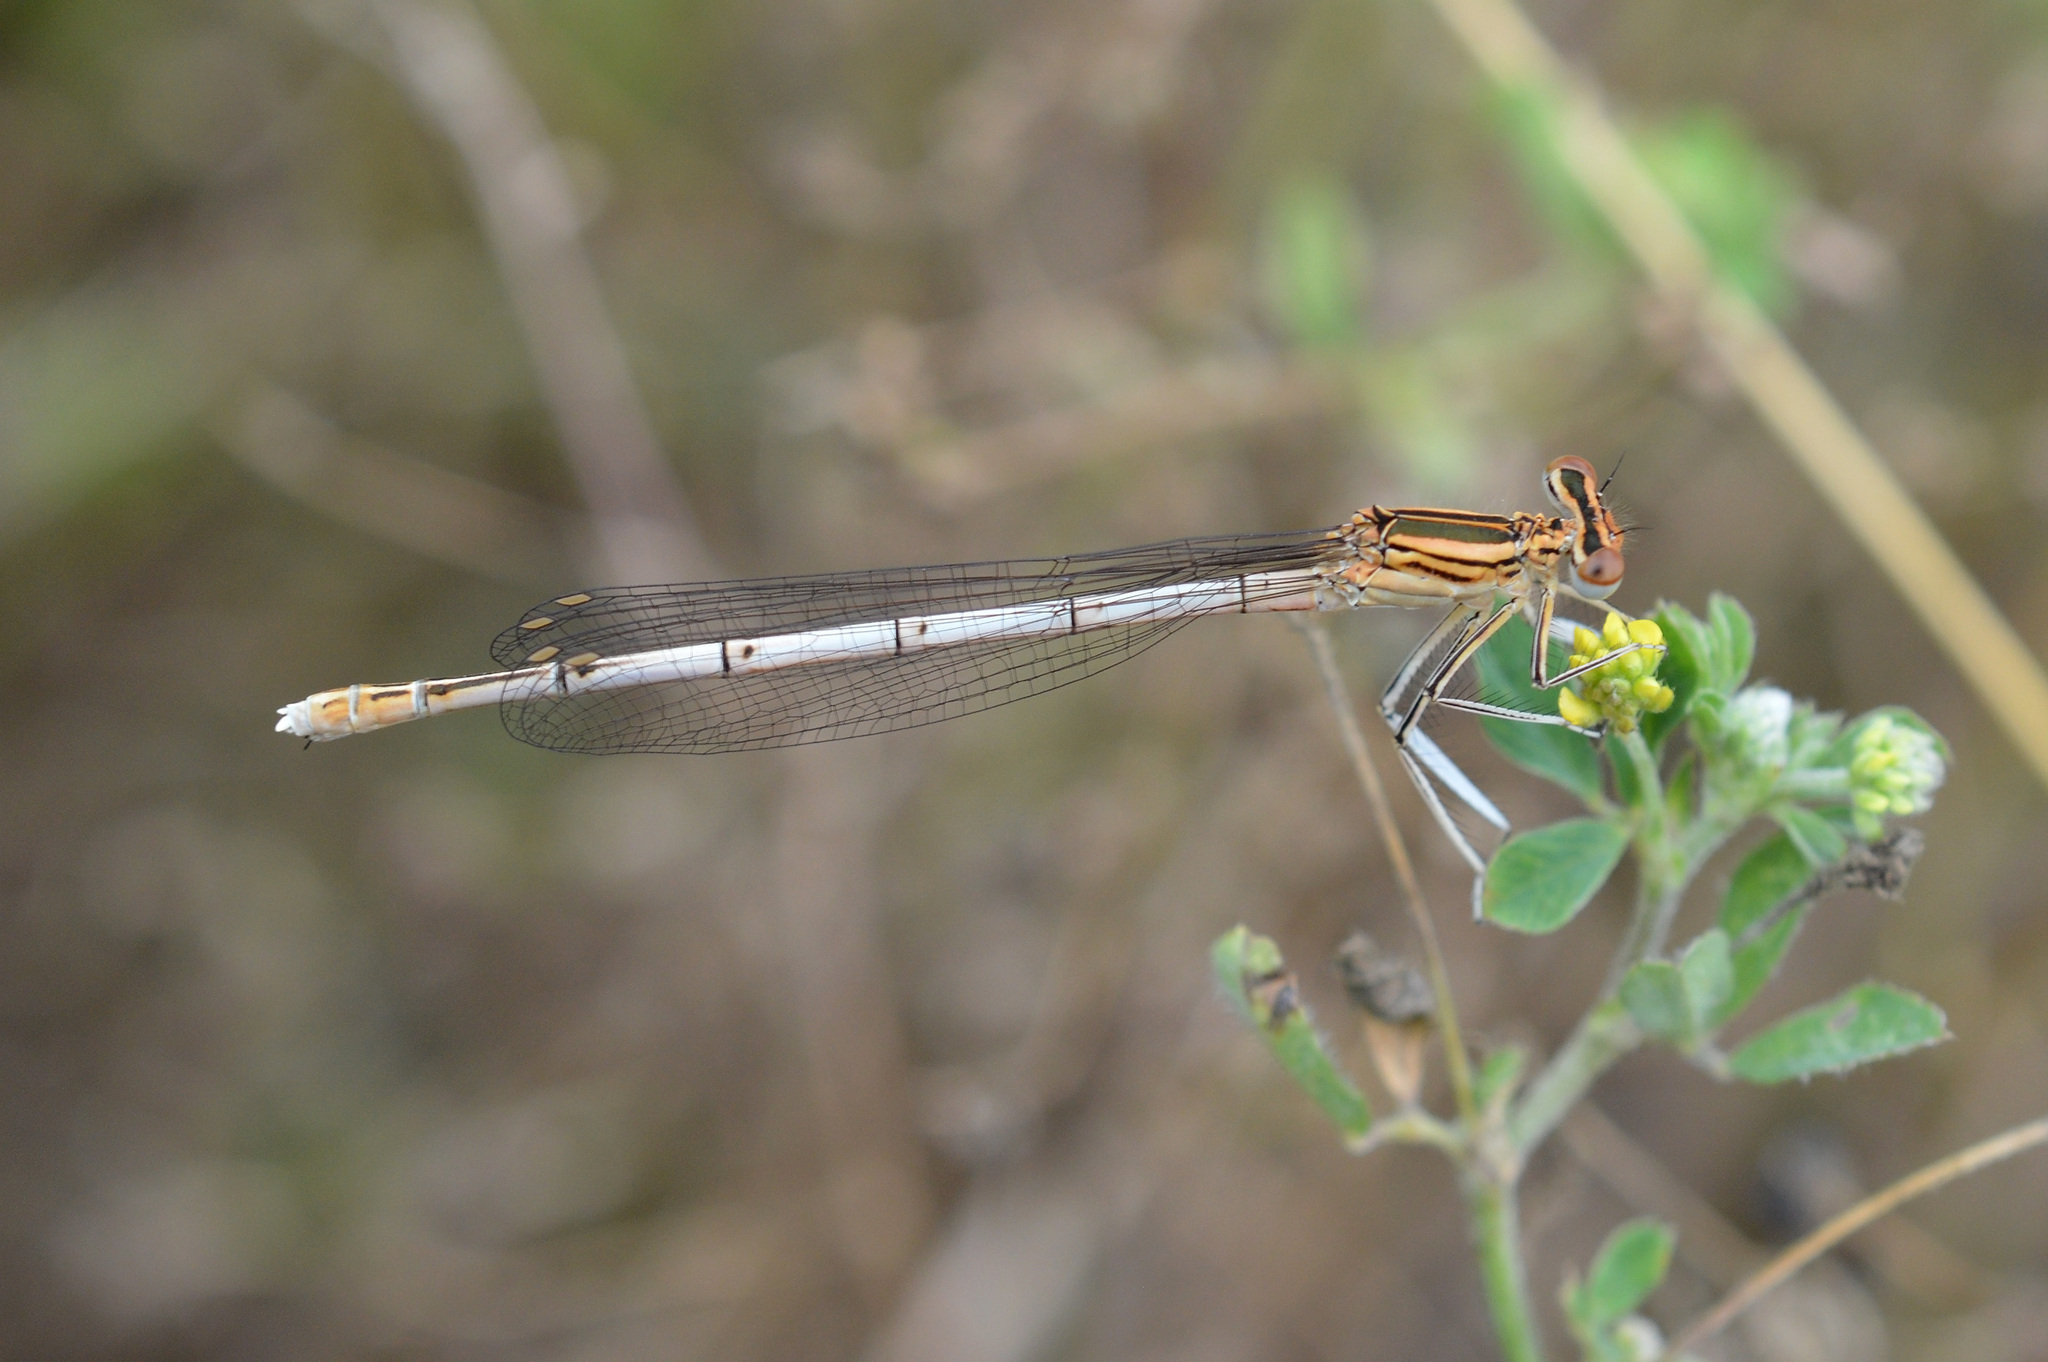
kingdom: Animalia
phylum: Arthropoda
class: Insecta
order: Odonata
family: Platycnemididae
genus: Platycnemis
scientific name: Platycnemis pennipes
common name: White-legged damselfly
